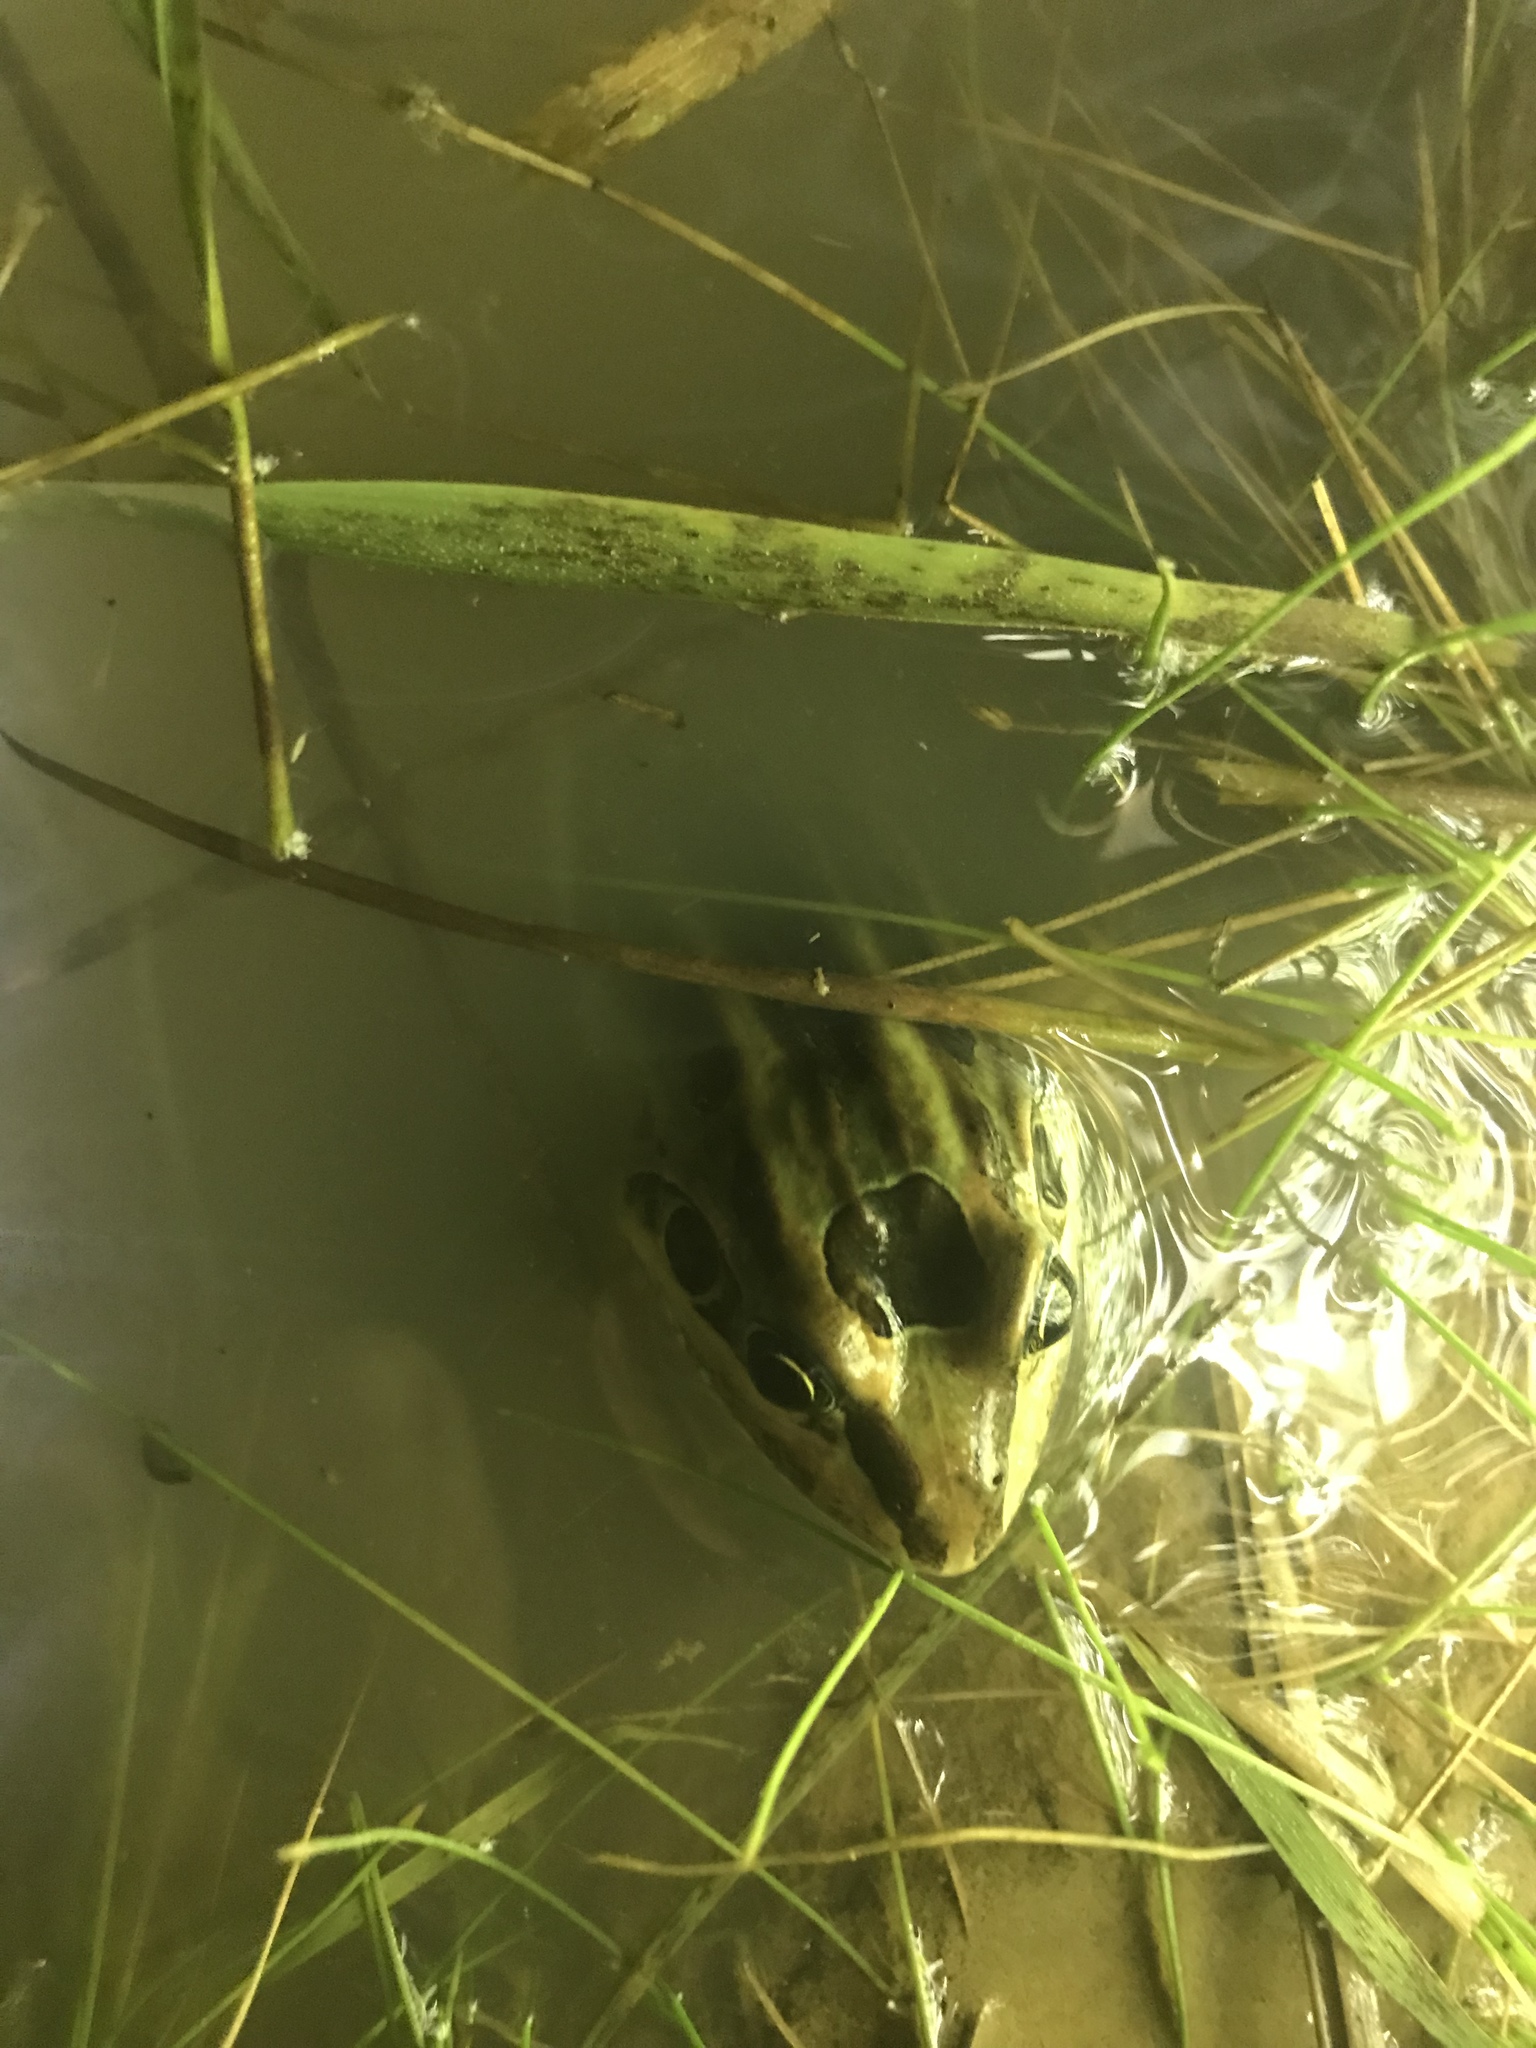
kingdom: Animalia
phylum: Chordata
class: Amphibia
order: Anura
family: Leptodactylidae
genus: Leptodactylus
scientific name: Leptodactylus luctator
